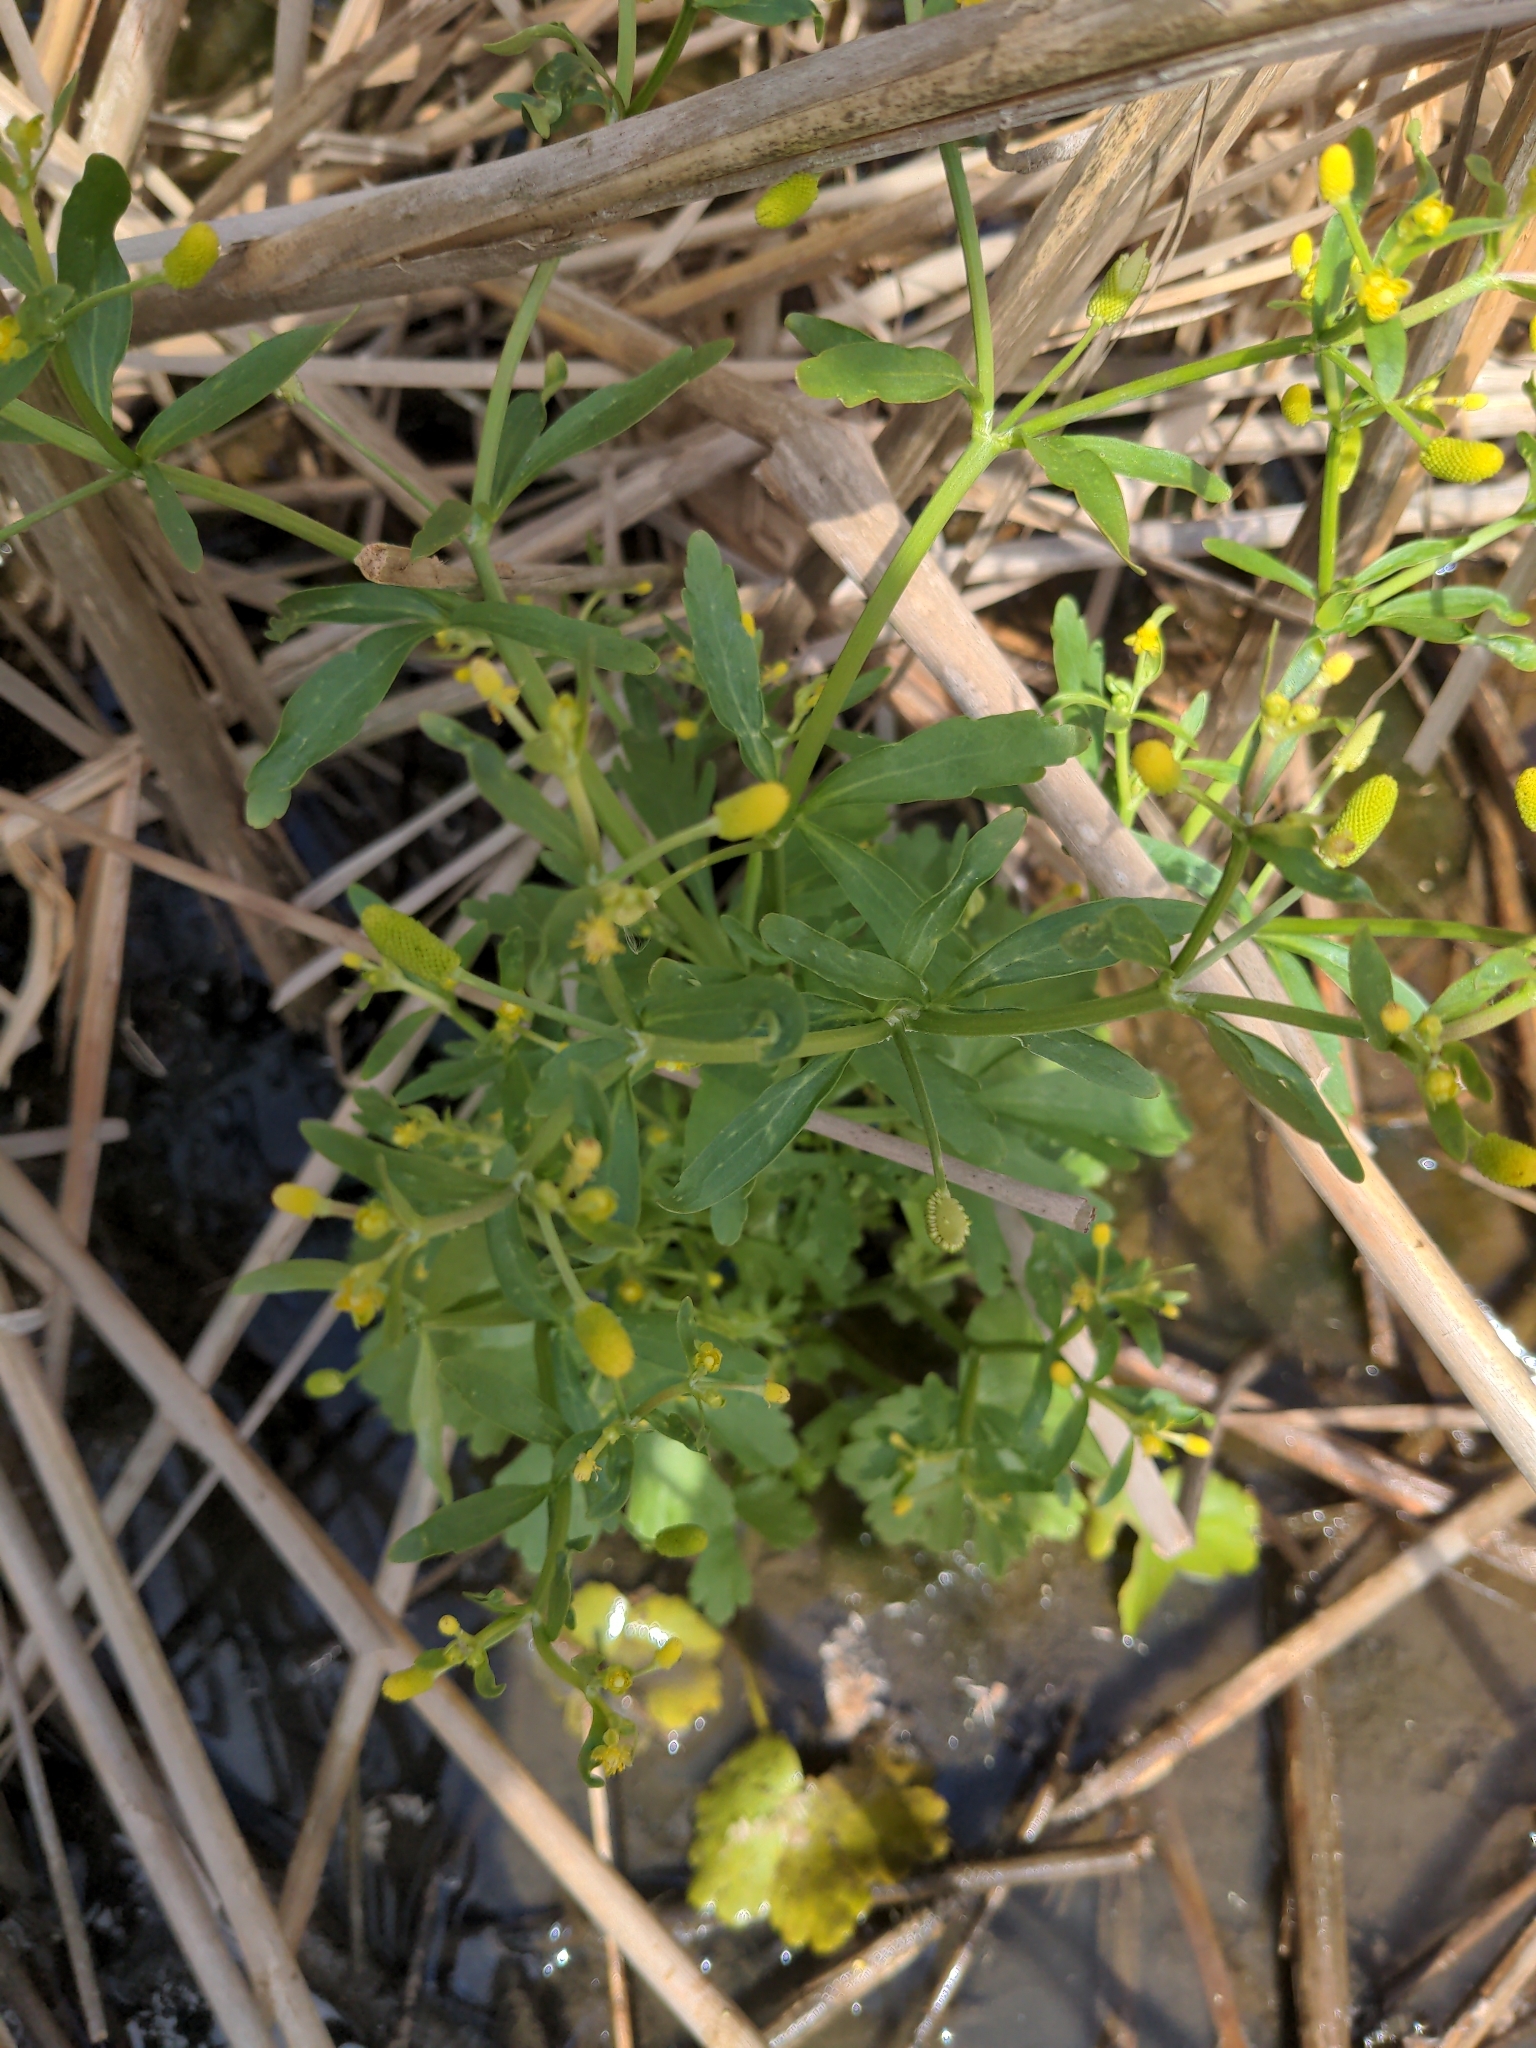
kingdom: Plantae
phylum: Tracheophyta
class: Magnoliopsida
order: Ranunculales
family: Ranunculaceae
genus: Ranunculus
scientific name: Ranunculus sceleratus
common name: Celery-leaved buttercup
